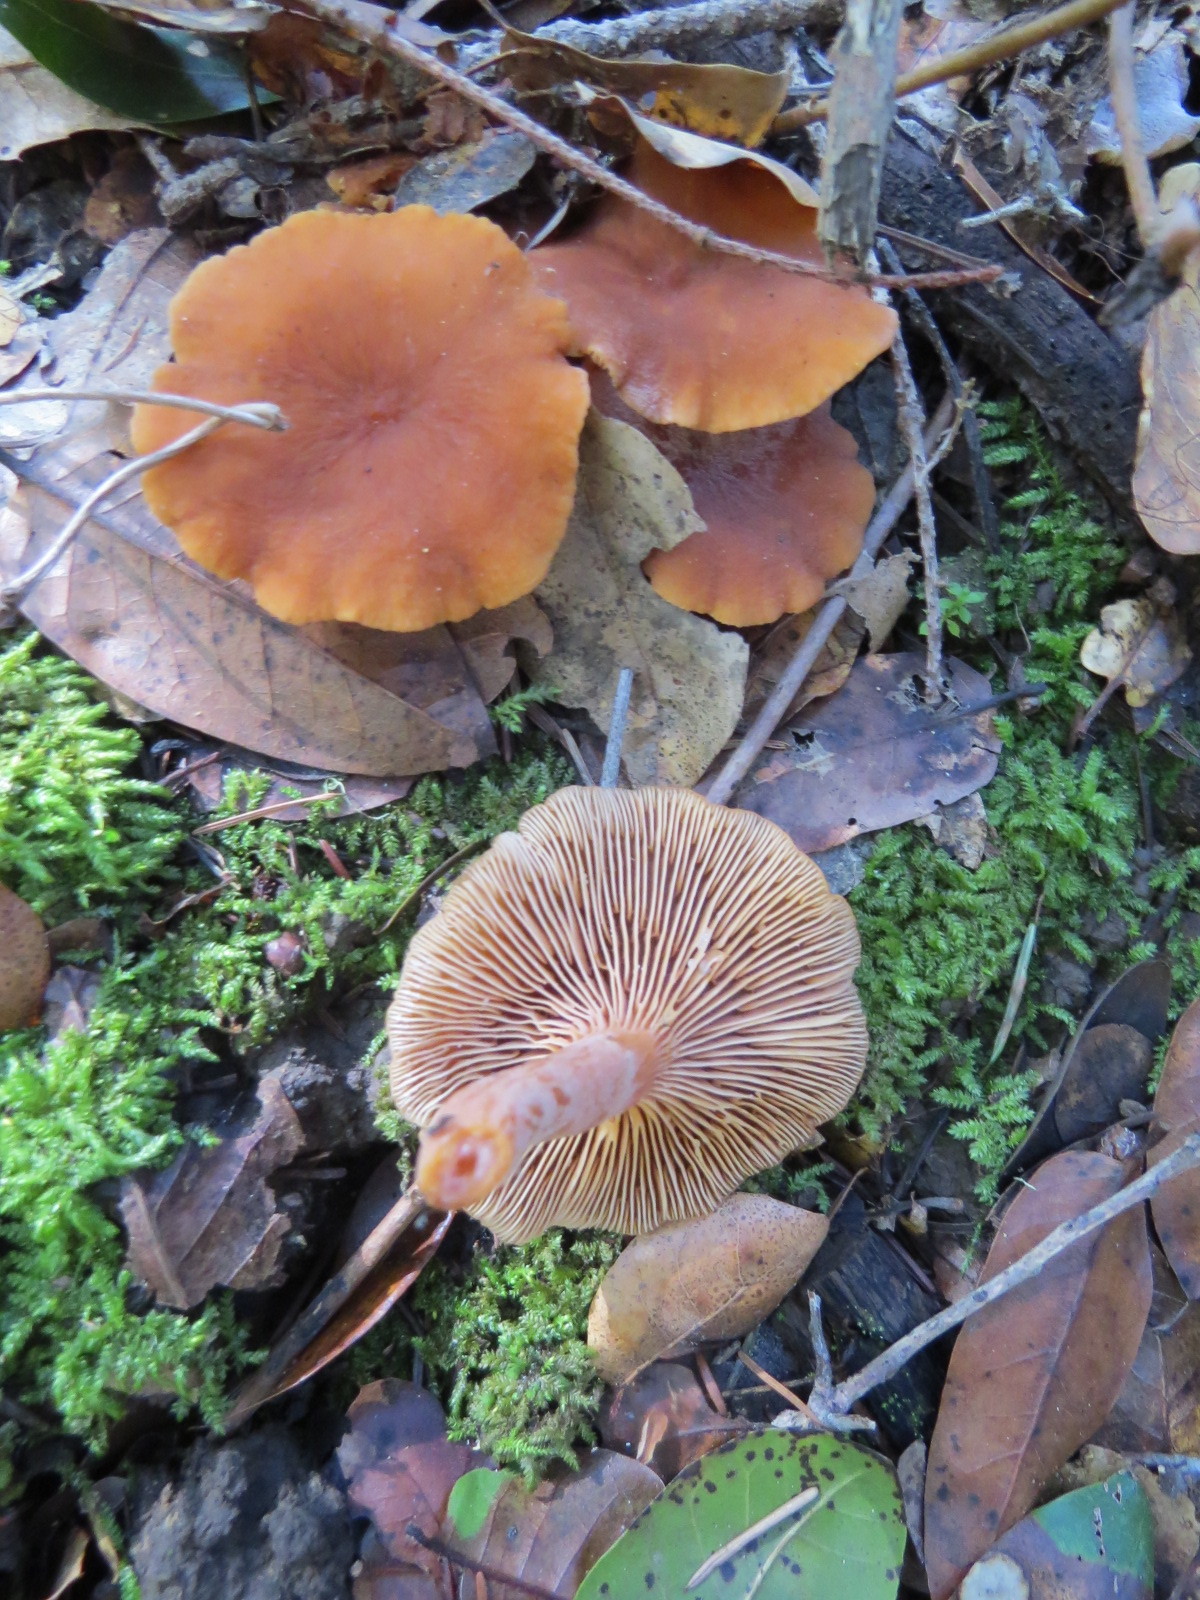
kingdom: Fungi
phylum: Basidiomycota
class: Agaricomycetes
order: Russulales
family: Russulaceae
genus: Lactarius
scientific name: Lactarius rubidus
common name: Candy cap
